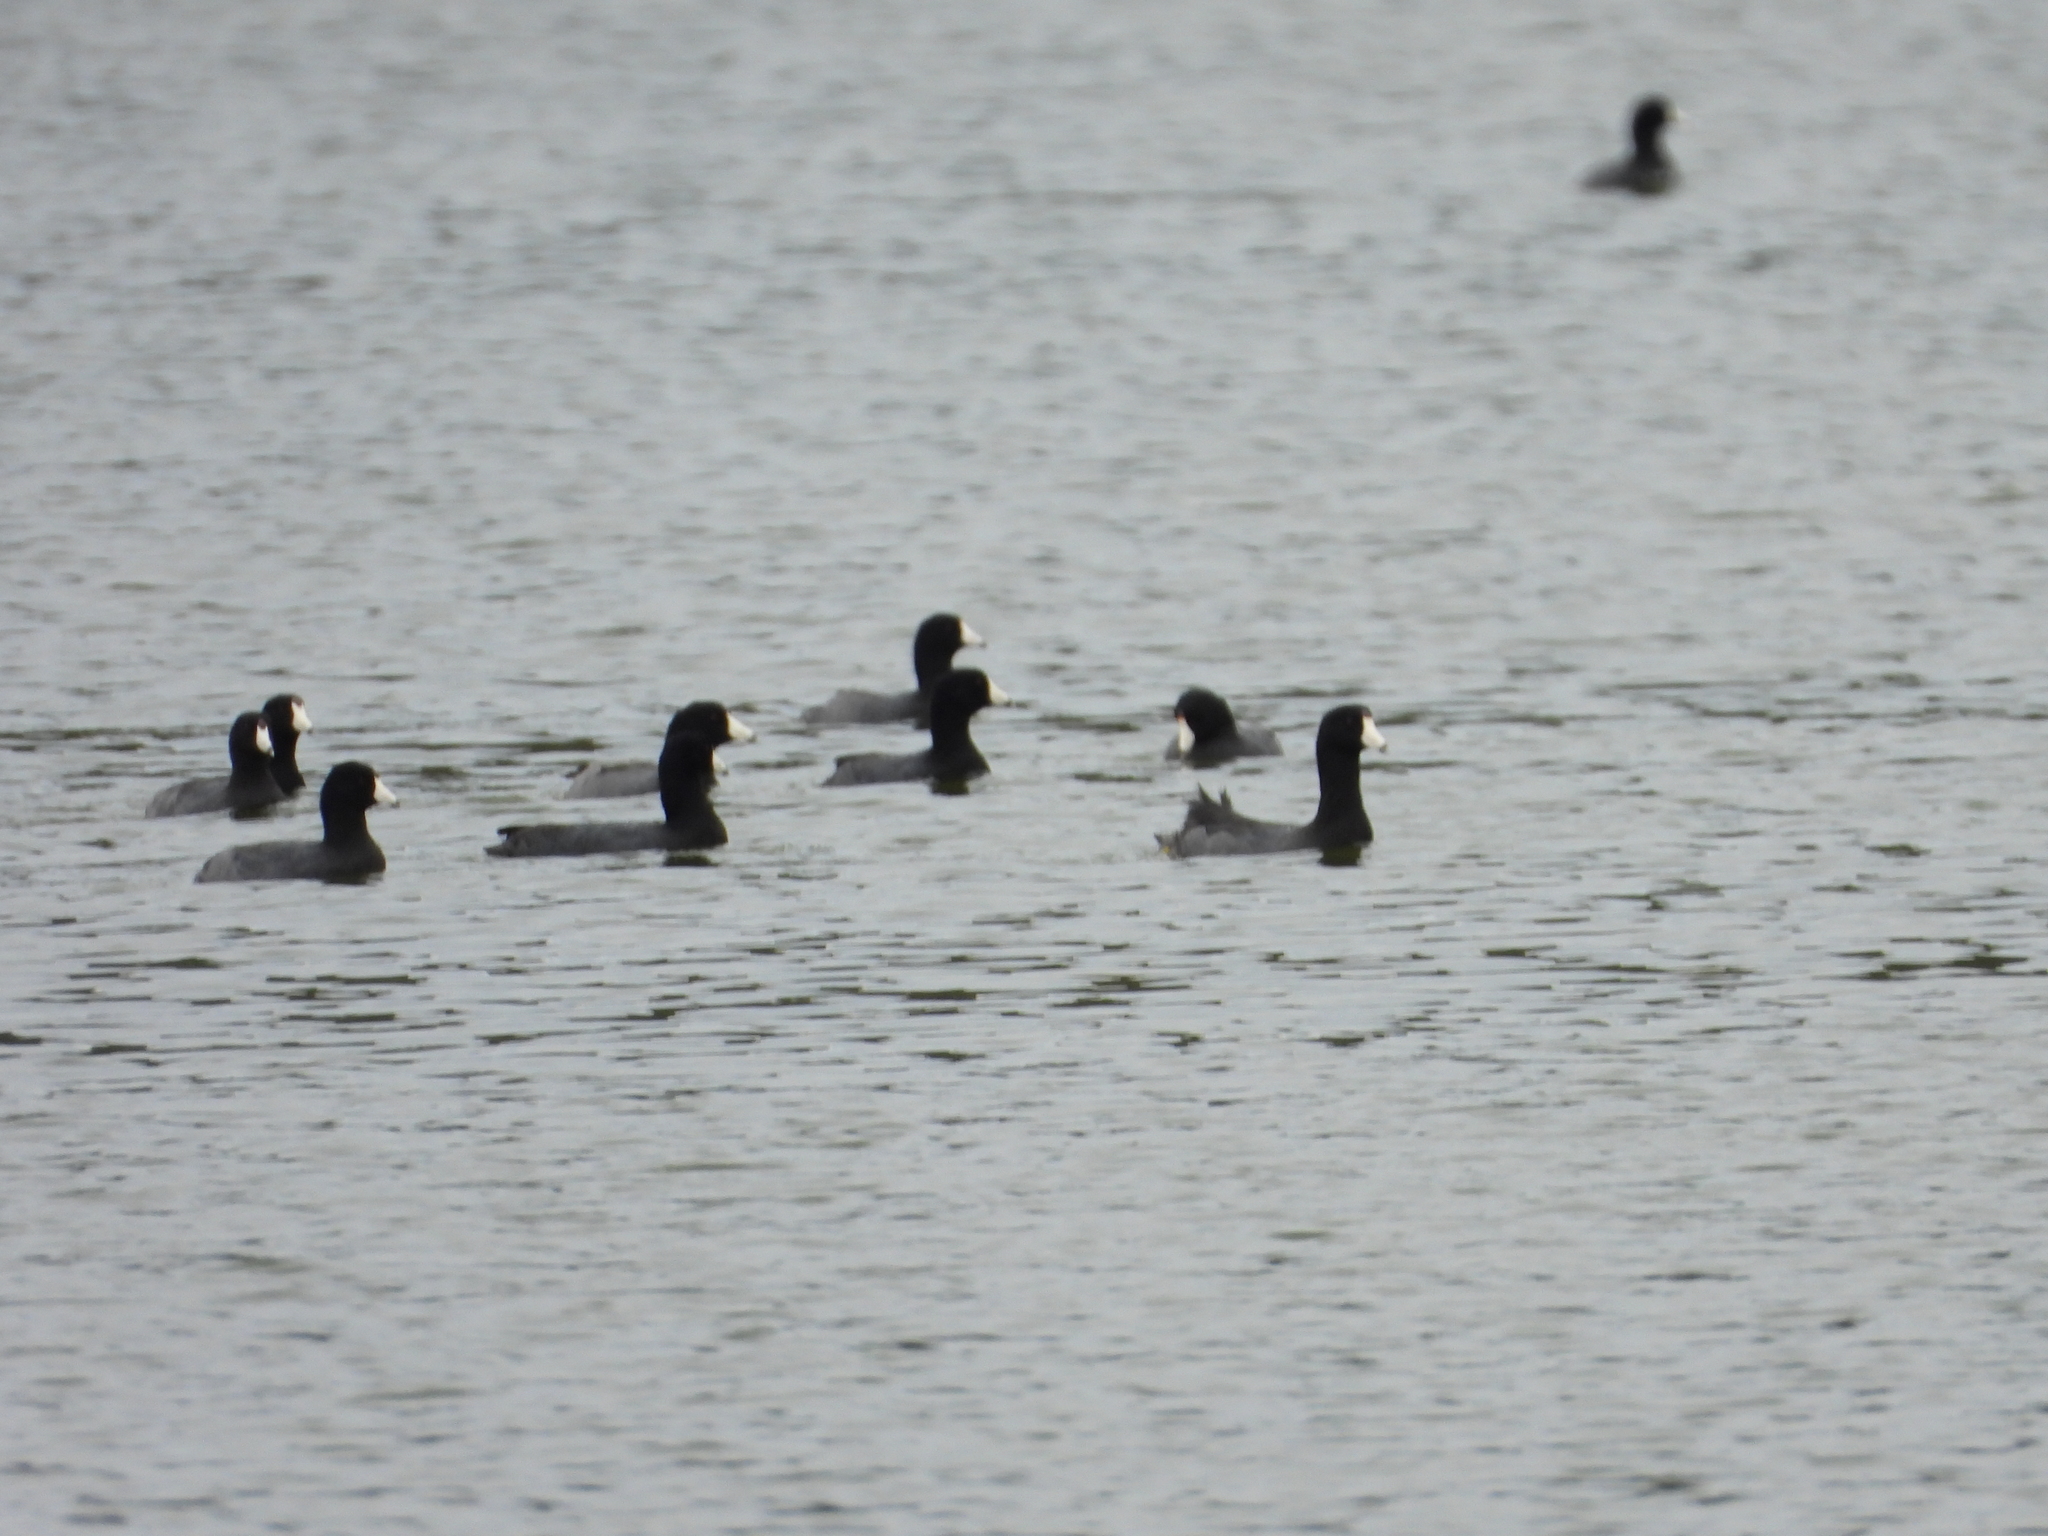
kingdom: Animalia
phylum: Chordata
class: Aves
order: Gruiformes
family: Rallidae
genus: Fulica
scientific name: Fulica americana
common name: American coot
